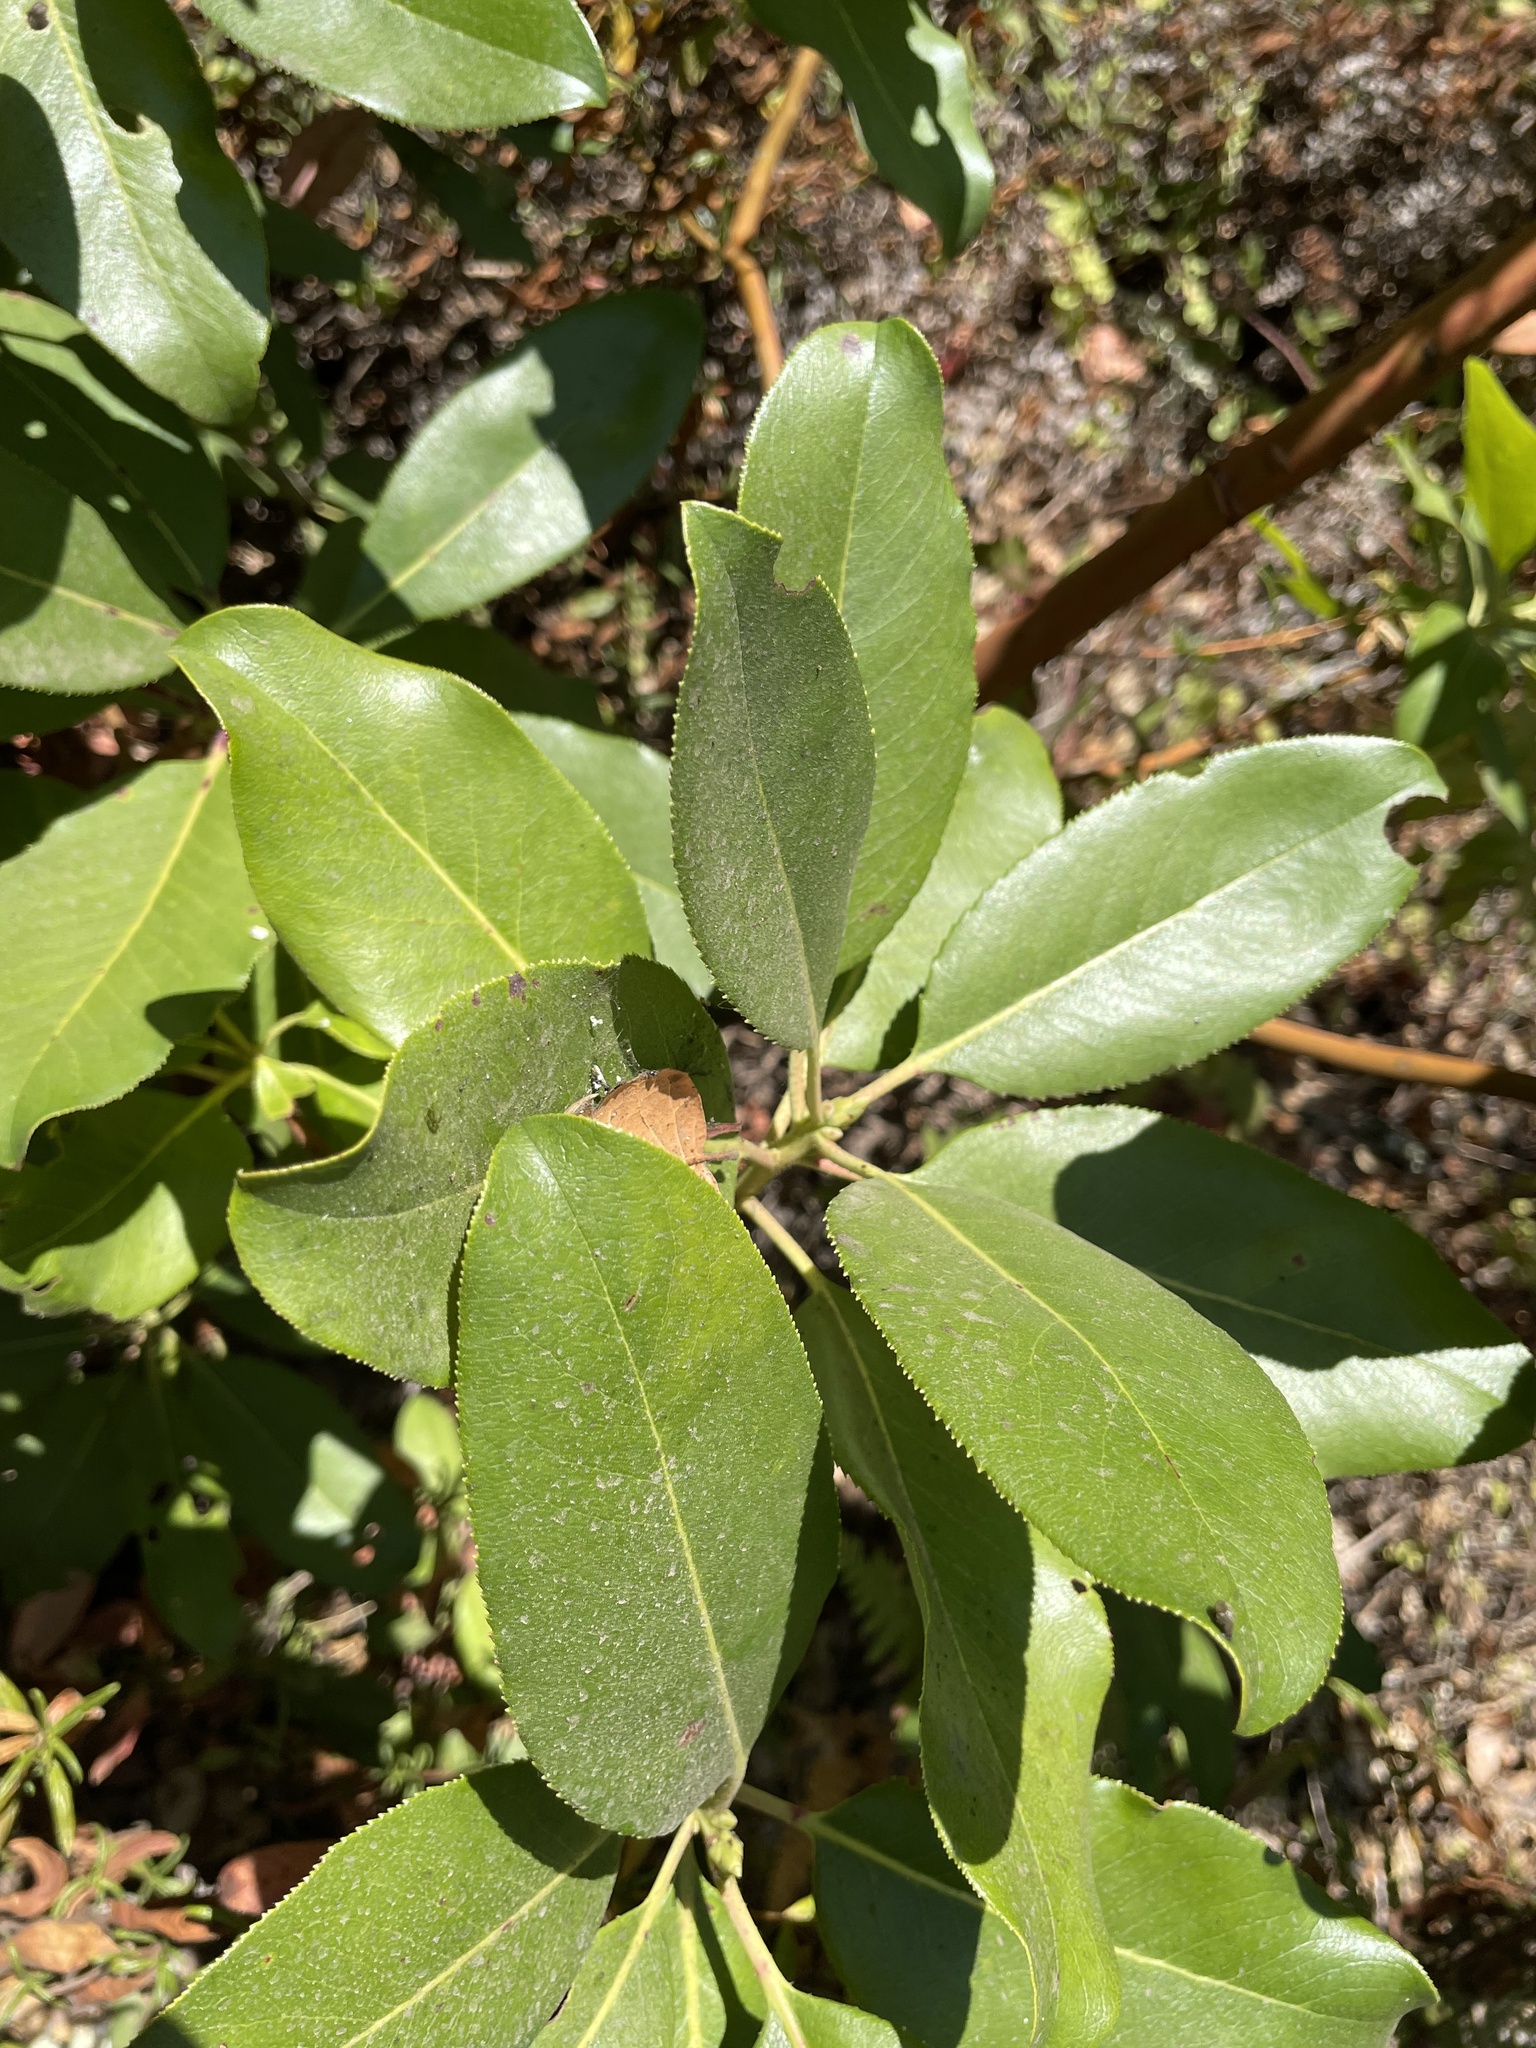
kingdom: Plantae
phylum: Tracheophyta
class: Magnoliopsida
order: Ericales
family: Ericaceae
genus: Arbutus
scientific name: Arbutus menziesii
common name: Pacific madrone
